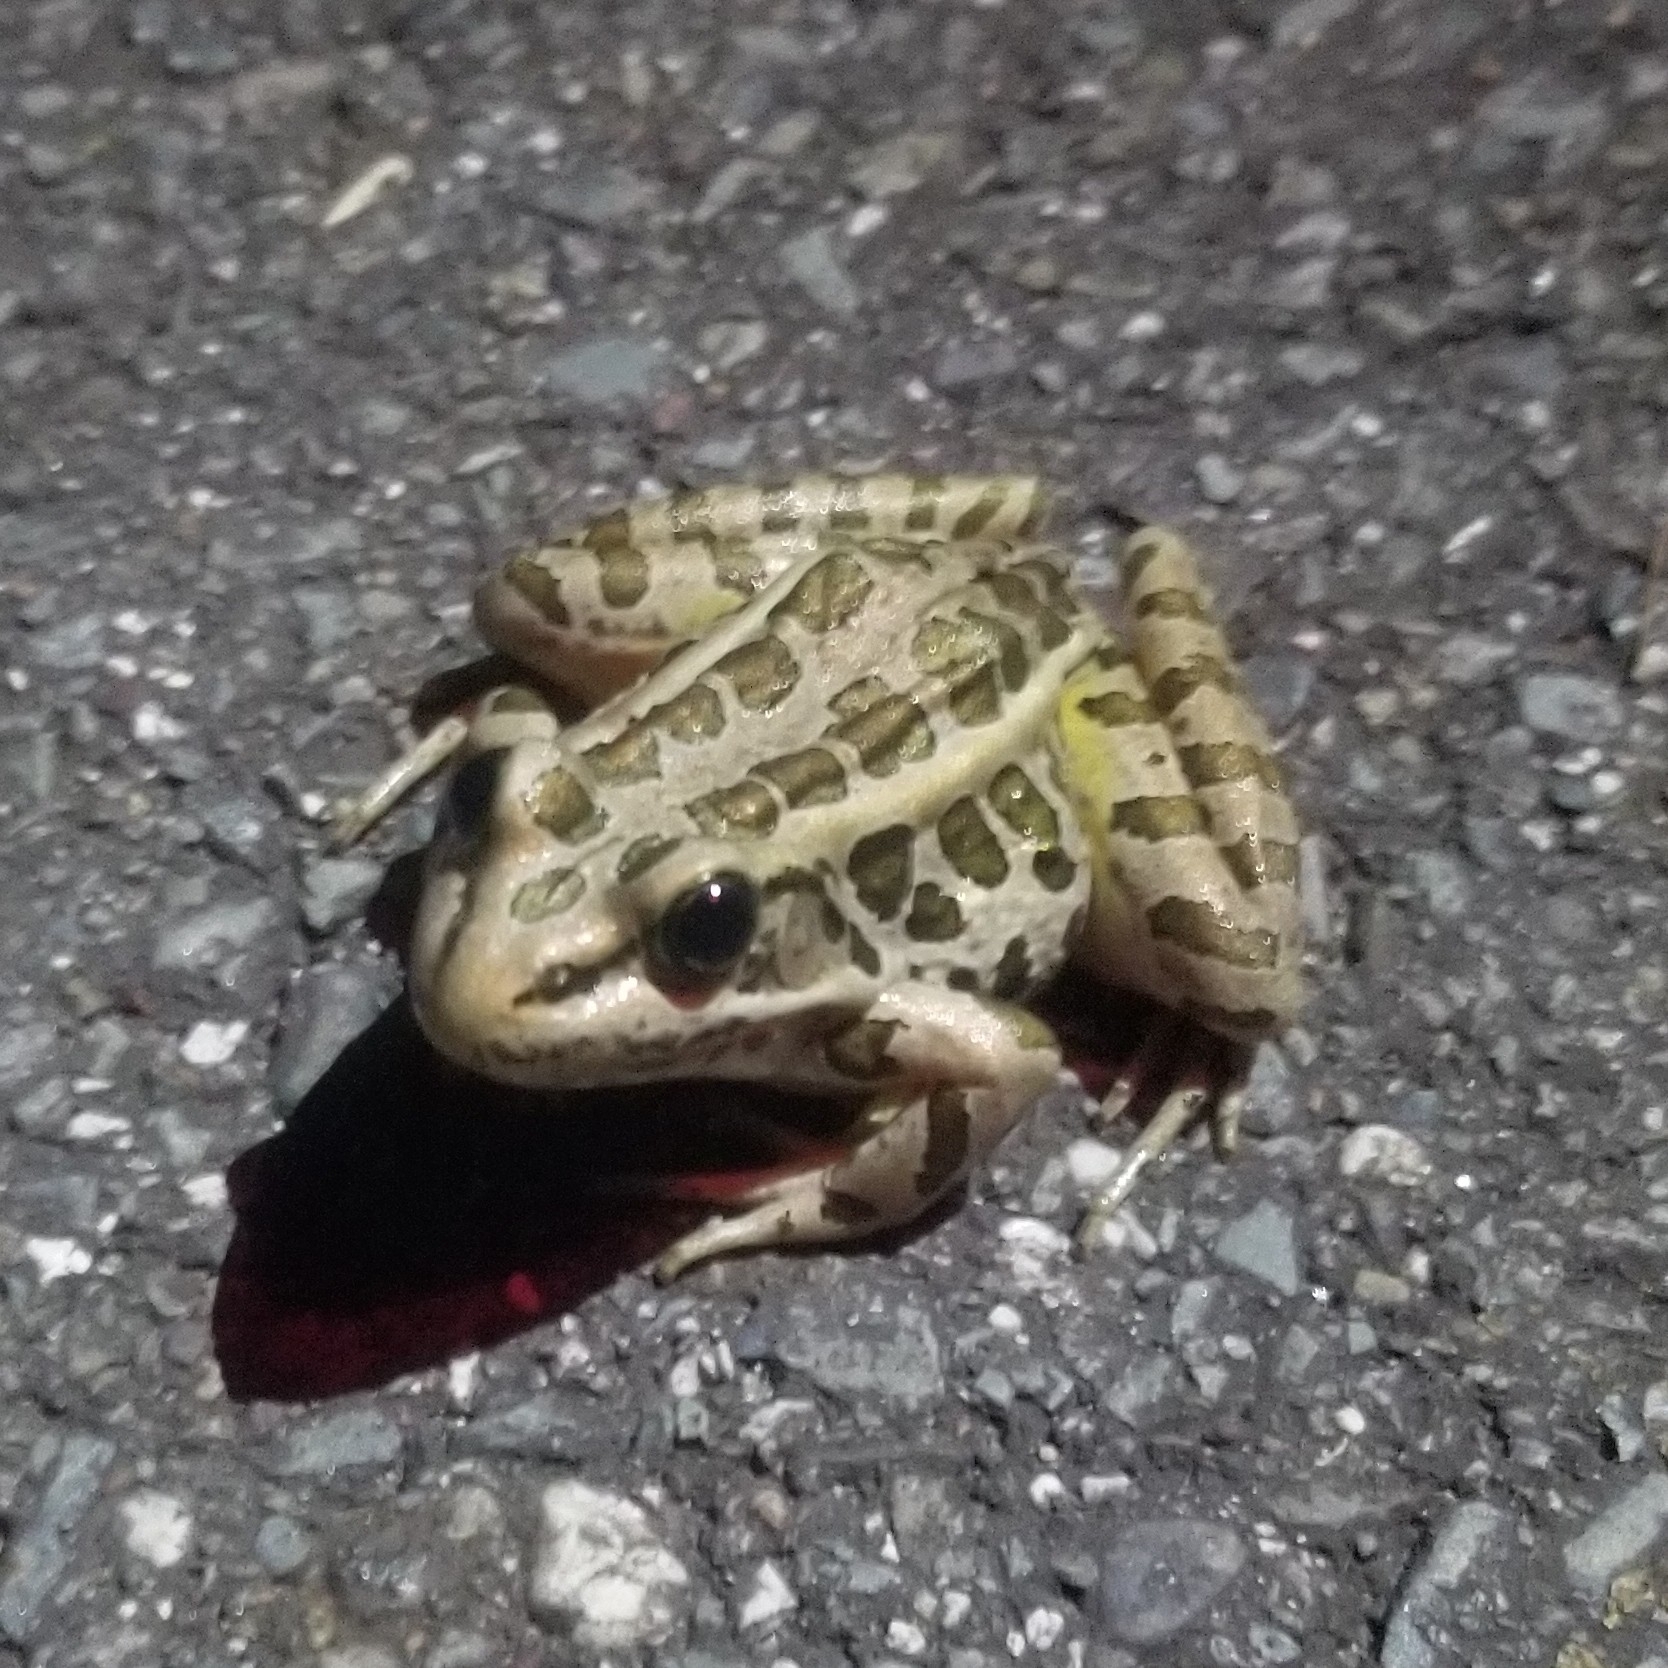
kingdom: Animalia
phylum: Chordata
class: Amphibia
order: Anura
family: Ranidae
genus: Lithobates
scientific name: Lithobates palustris
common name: Pickerel frog
